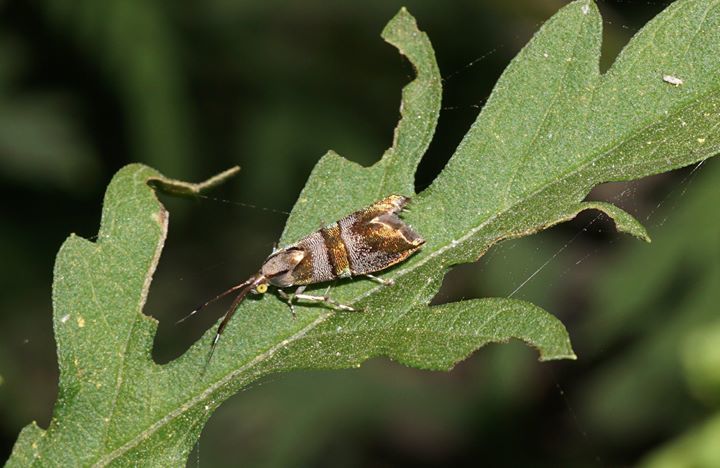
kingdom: Animalia
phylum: Arthropoda
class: Insecta
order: Lepidoptera
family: Choreutidae
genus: Tortyra
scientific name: Tortyra slossonia
